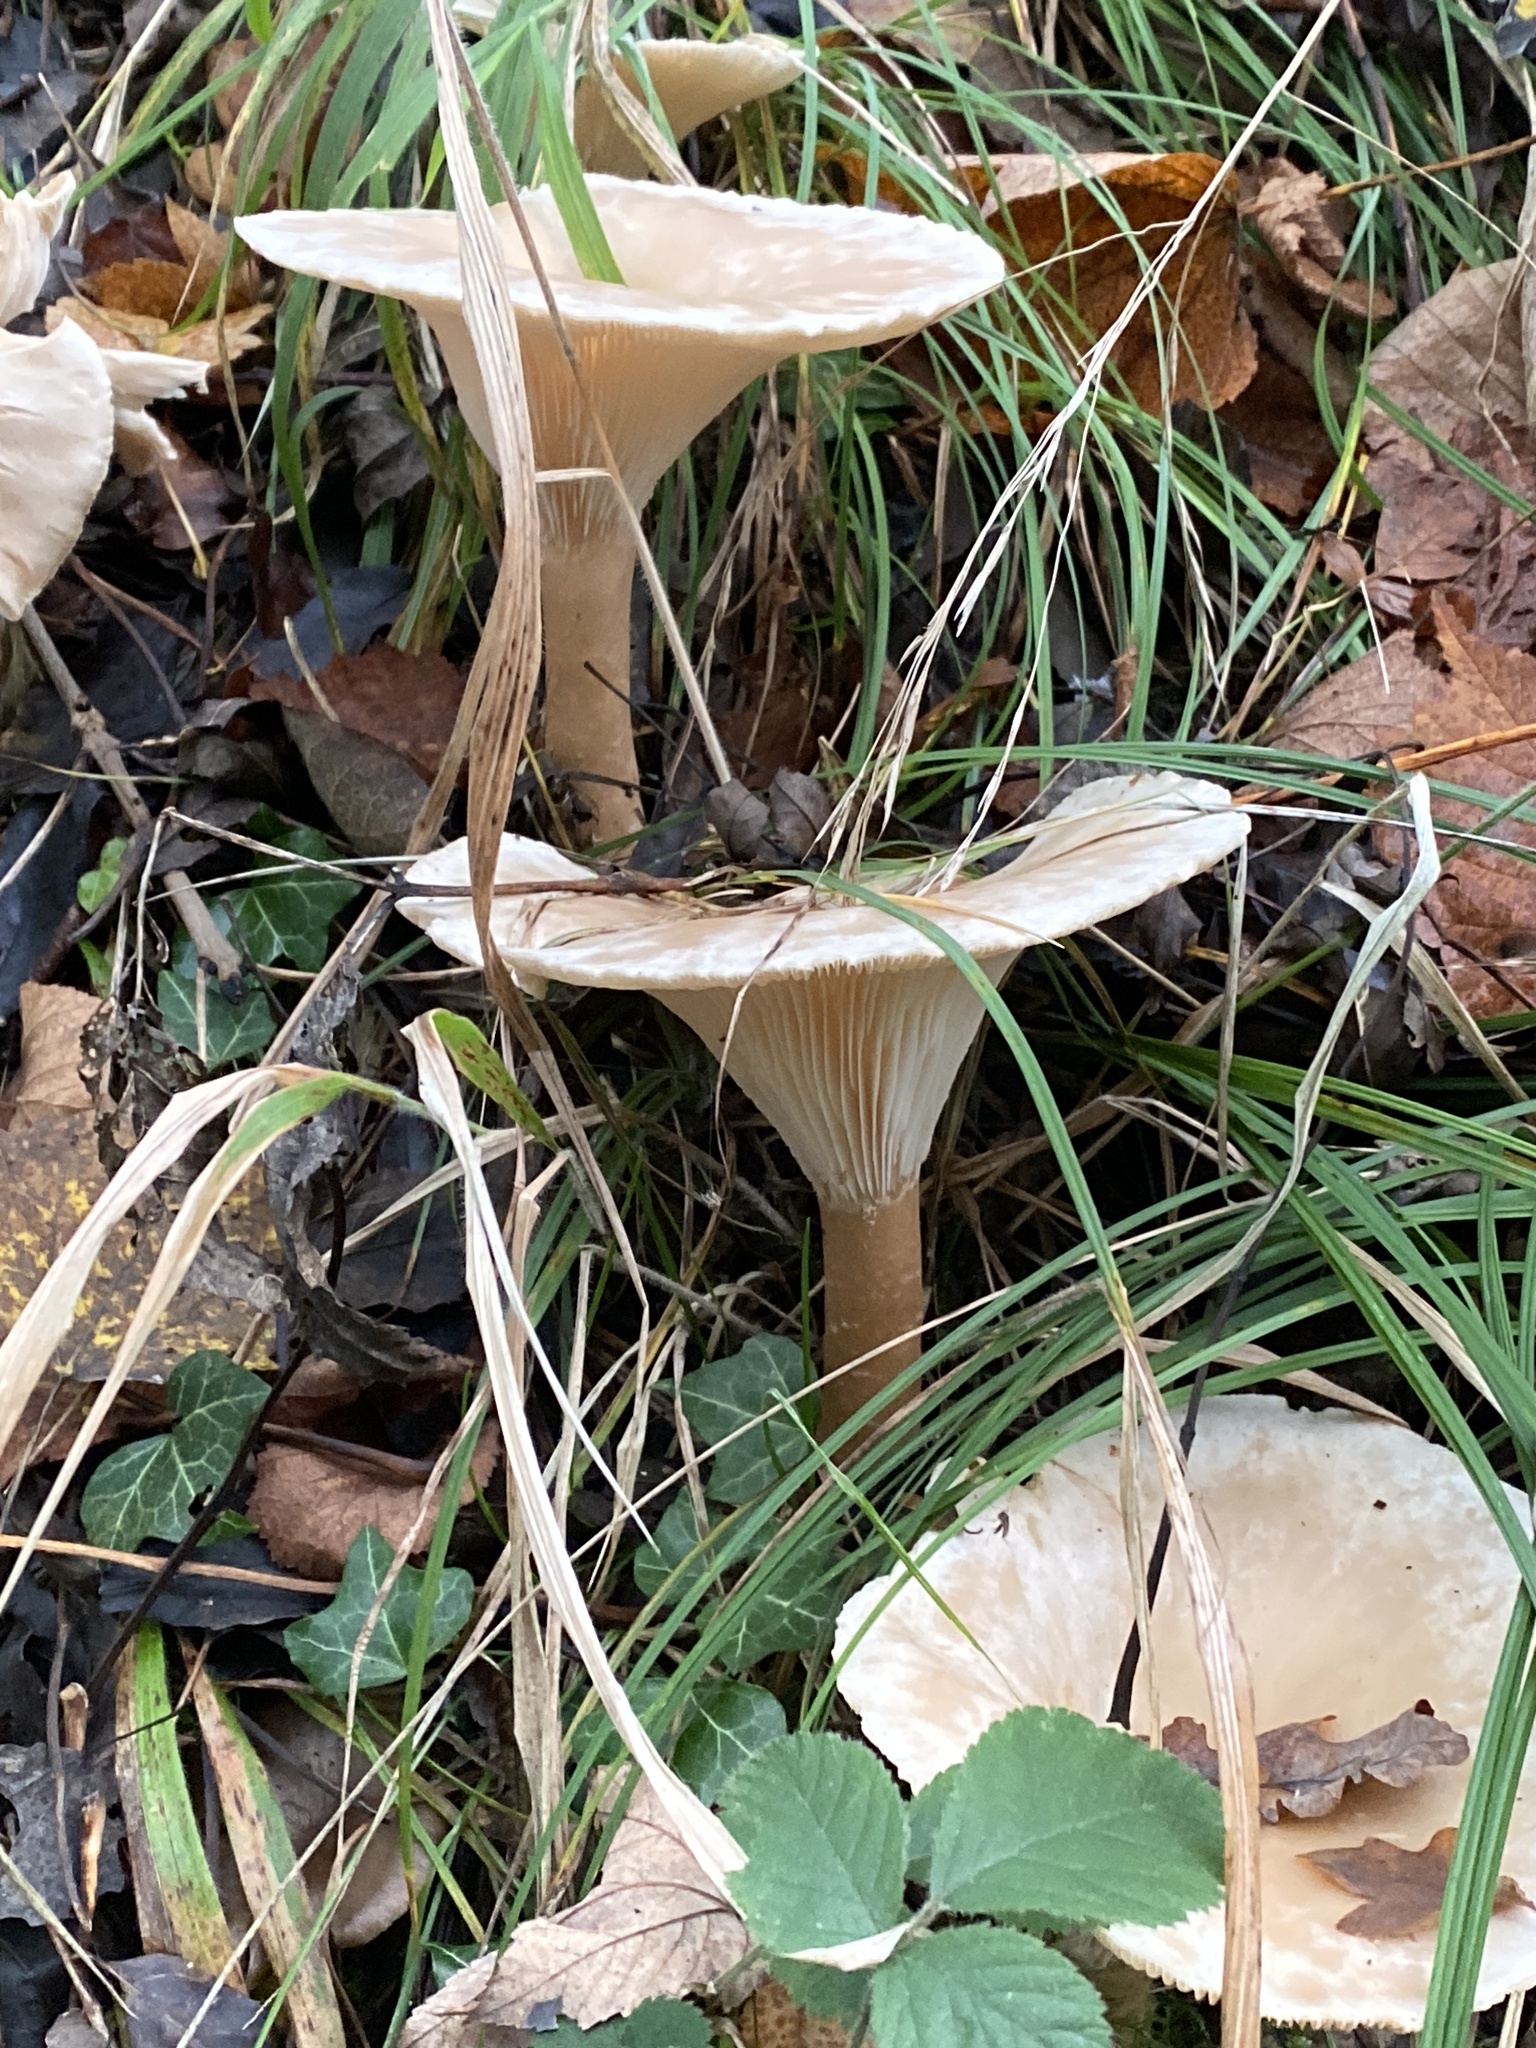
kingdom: Fungi
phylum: Basidiomycota
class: Agaricomycetes
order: Agaricales
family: Tricholomataceae
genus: Infundibulicybe
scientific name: Infundibulicybe geotropa
